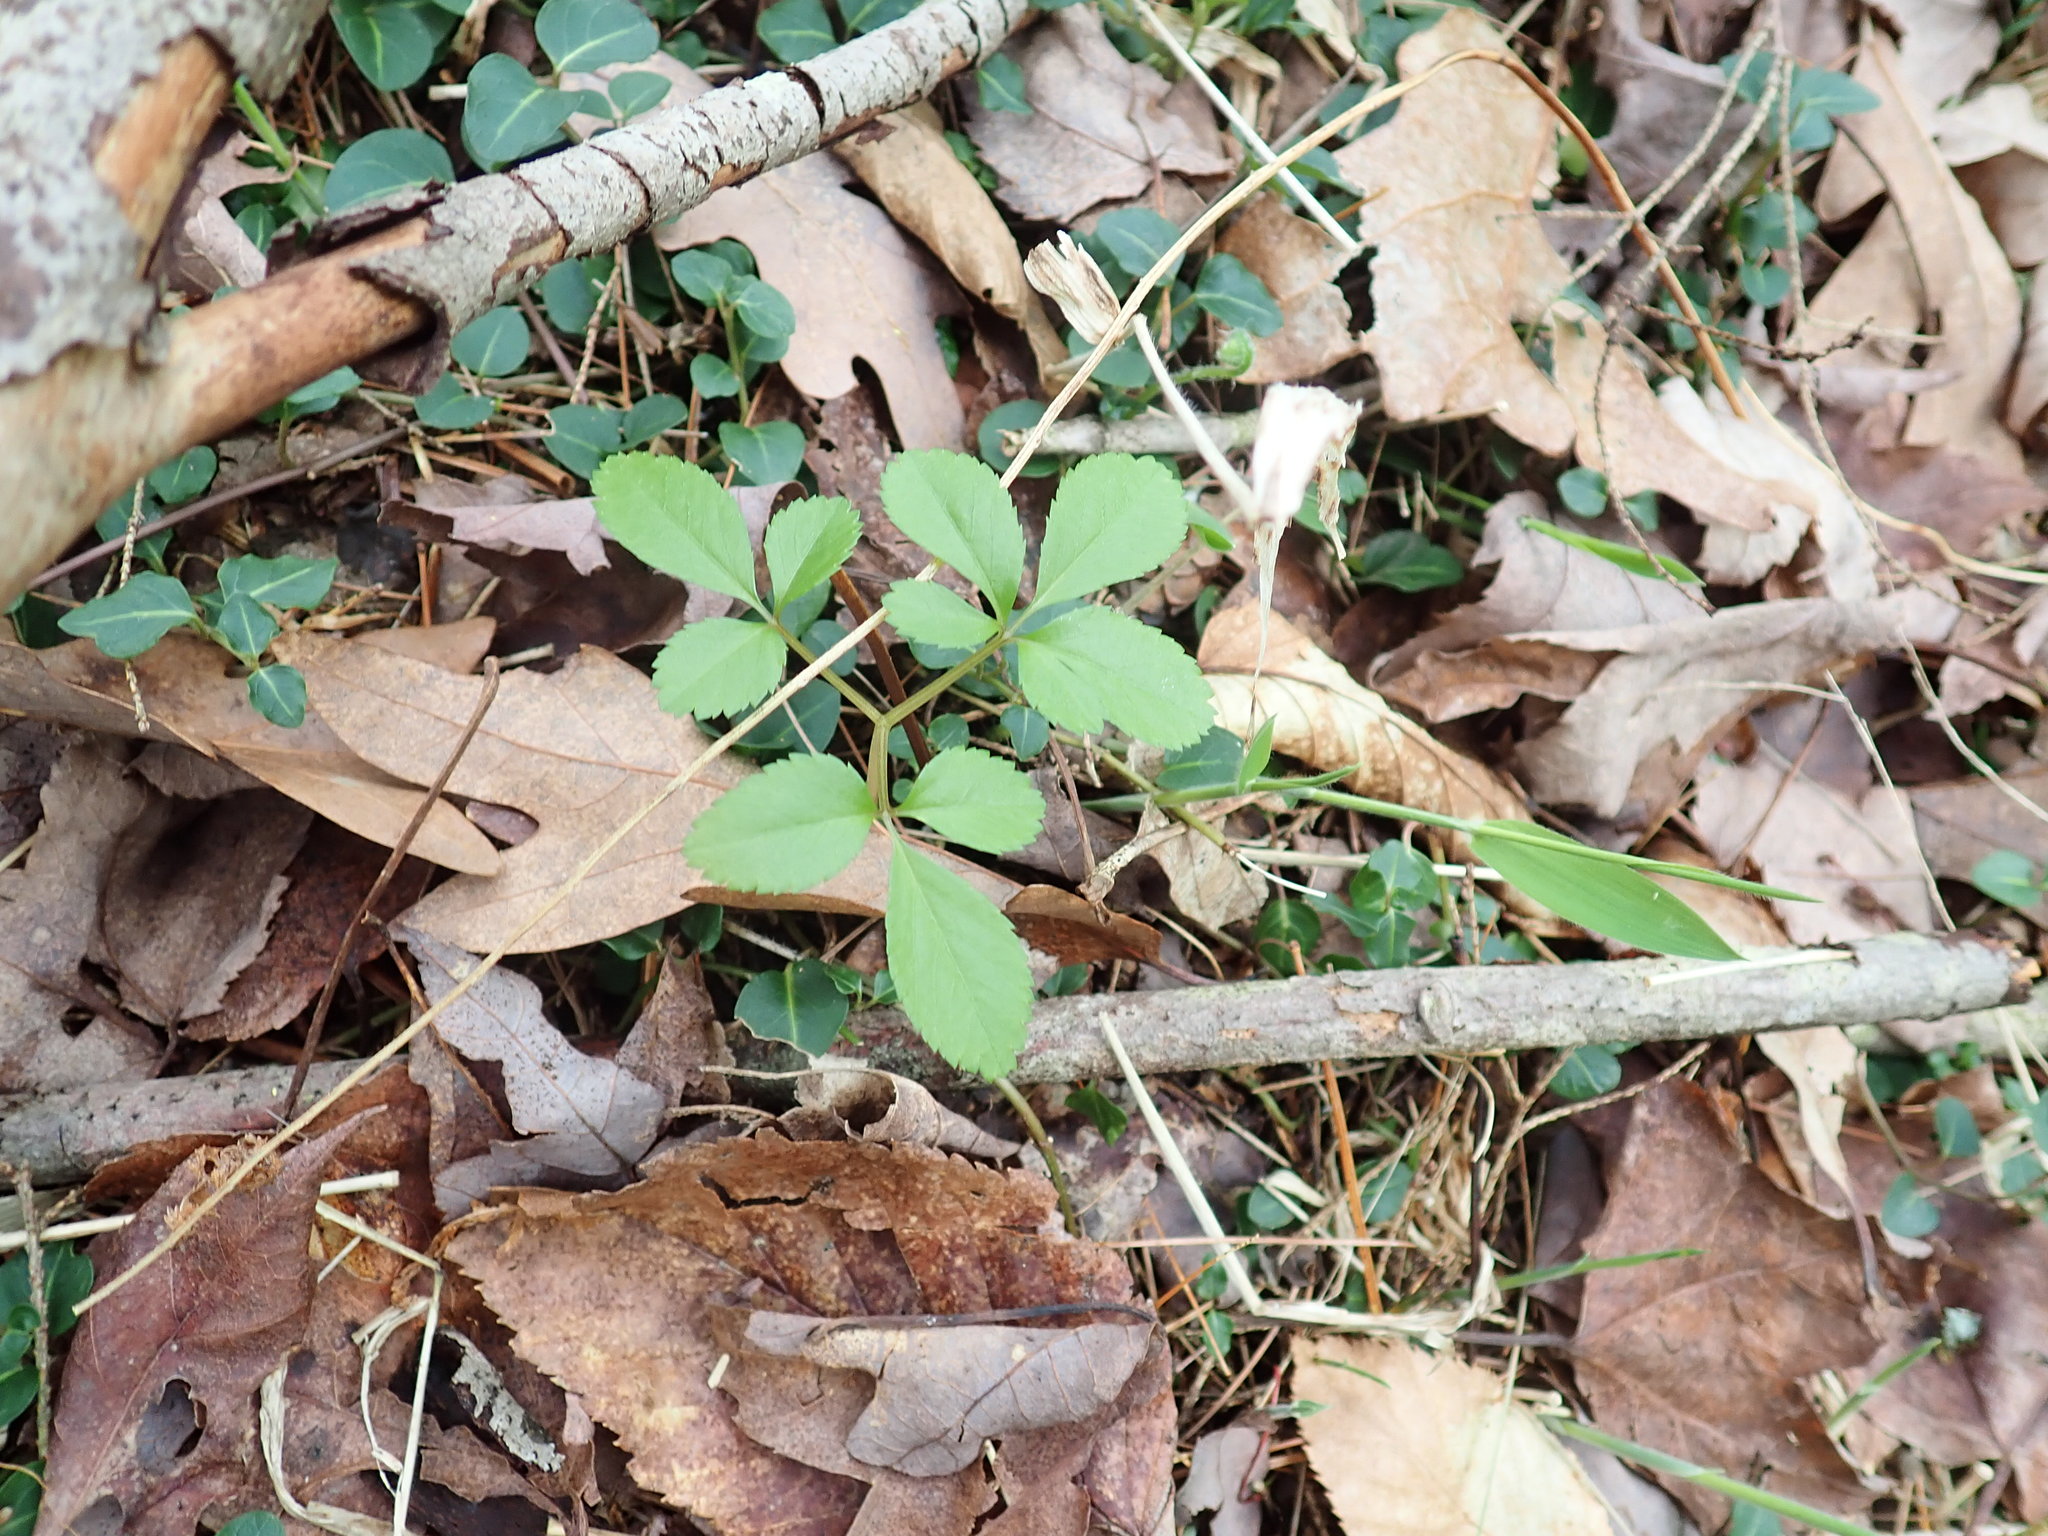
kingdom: Plantae
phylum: Tracheophyta
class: Magnoliopsida
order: Apiales
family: Araliaceae
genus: Panax
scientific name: Panax trifolius
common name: Dwarf ginseng
